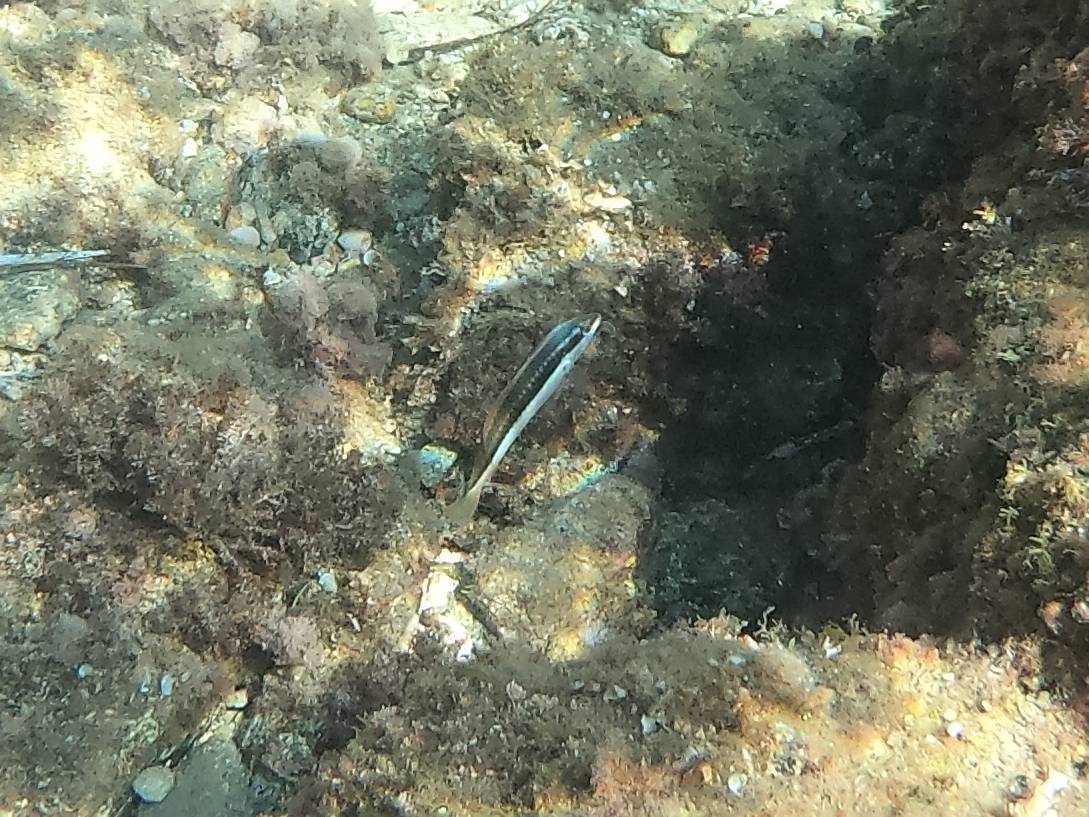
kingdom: Animalia
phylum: Chordata
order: Perciformes
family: Labridae
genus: Coris
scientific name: Coris julis
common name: Rainbow wrasse
